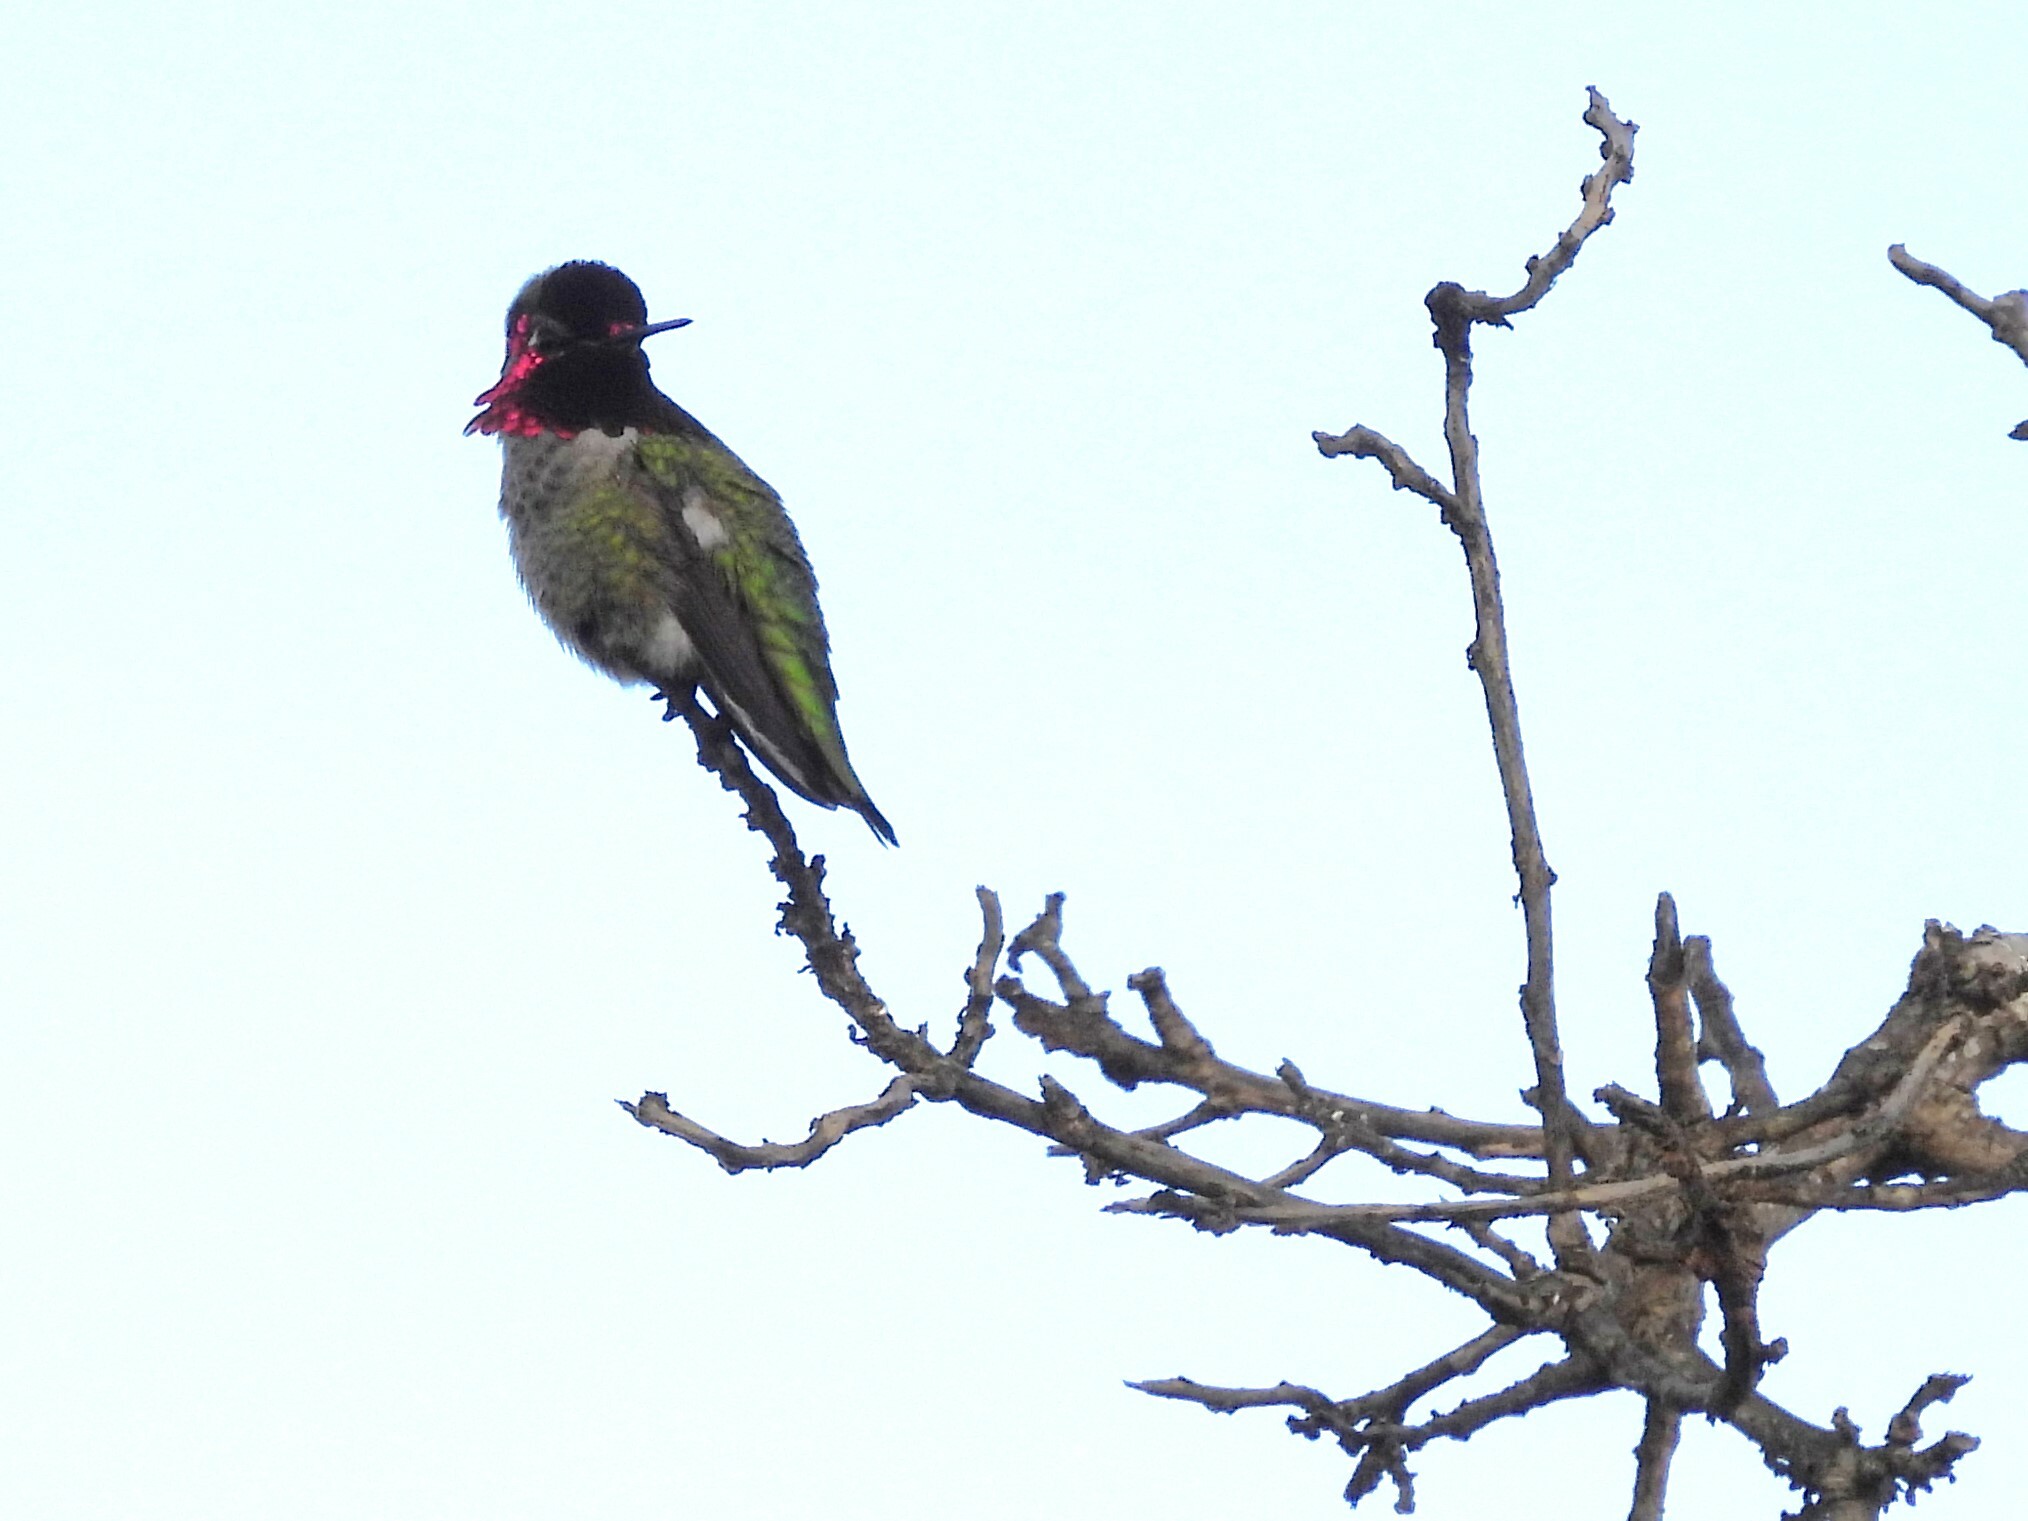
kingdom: Animalia
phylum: Chordata
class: Aves
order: Apodiformes
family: Trochilidae
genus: Calypte
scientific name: Calypte anna
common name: Anna's hummingbird
